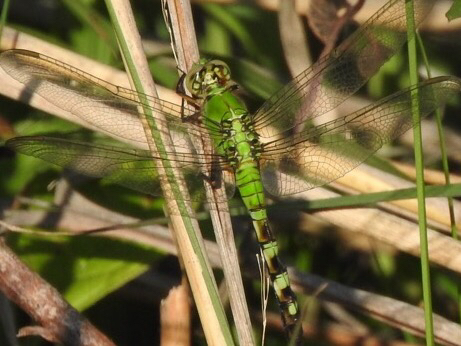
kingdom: Animalia
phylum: Arthropoda
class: Insecta
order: Odonata
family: Libellulidae
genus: Erythemis
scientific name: Erythemis simplicicollis
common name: Eastern pondhawk
